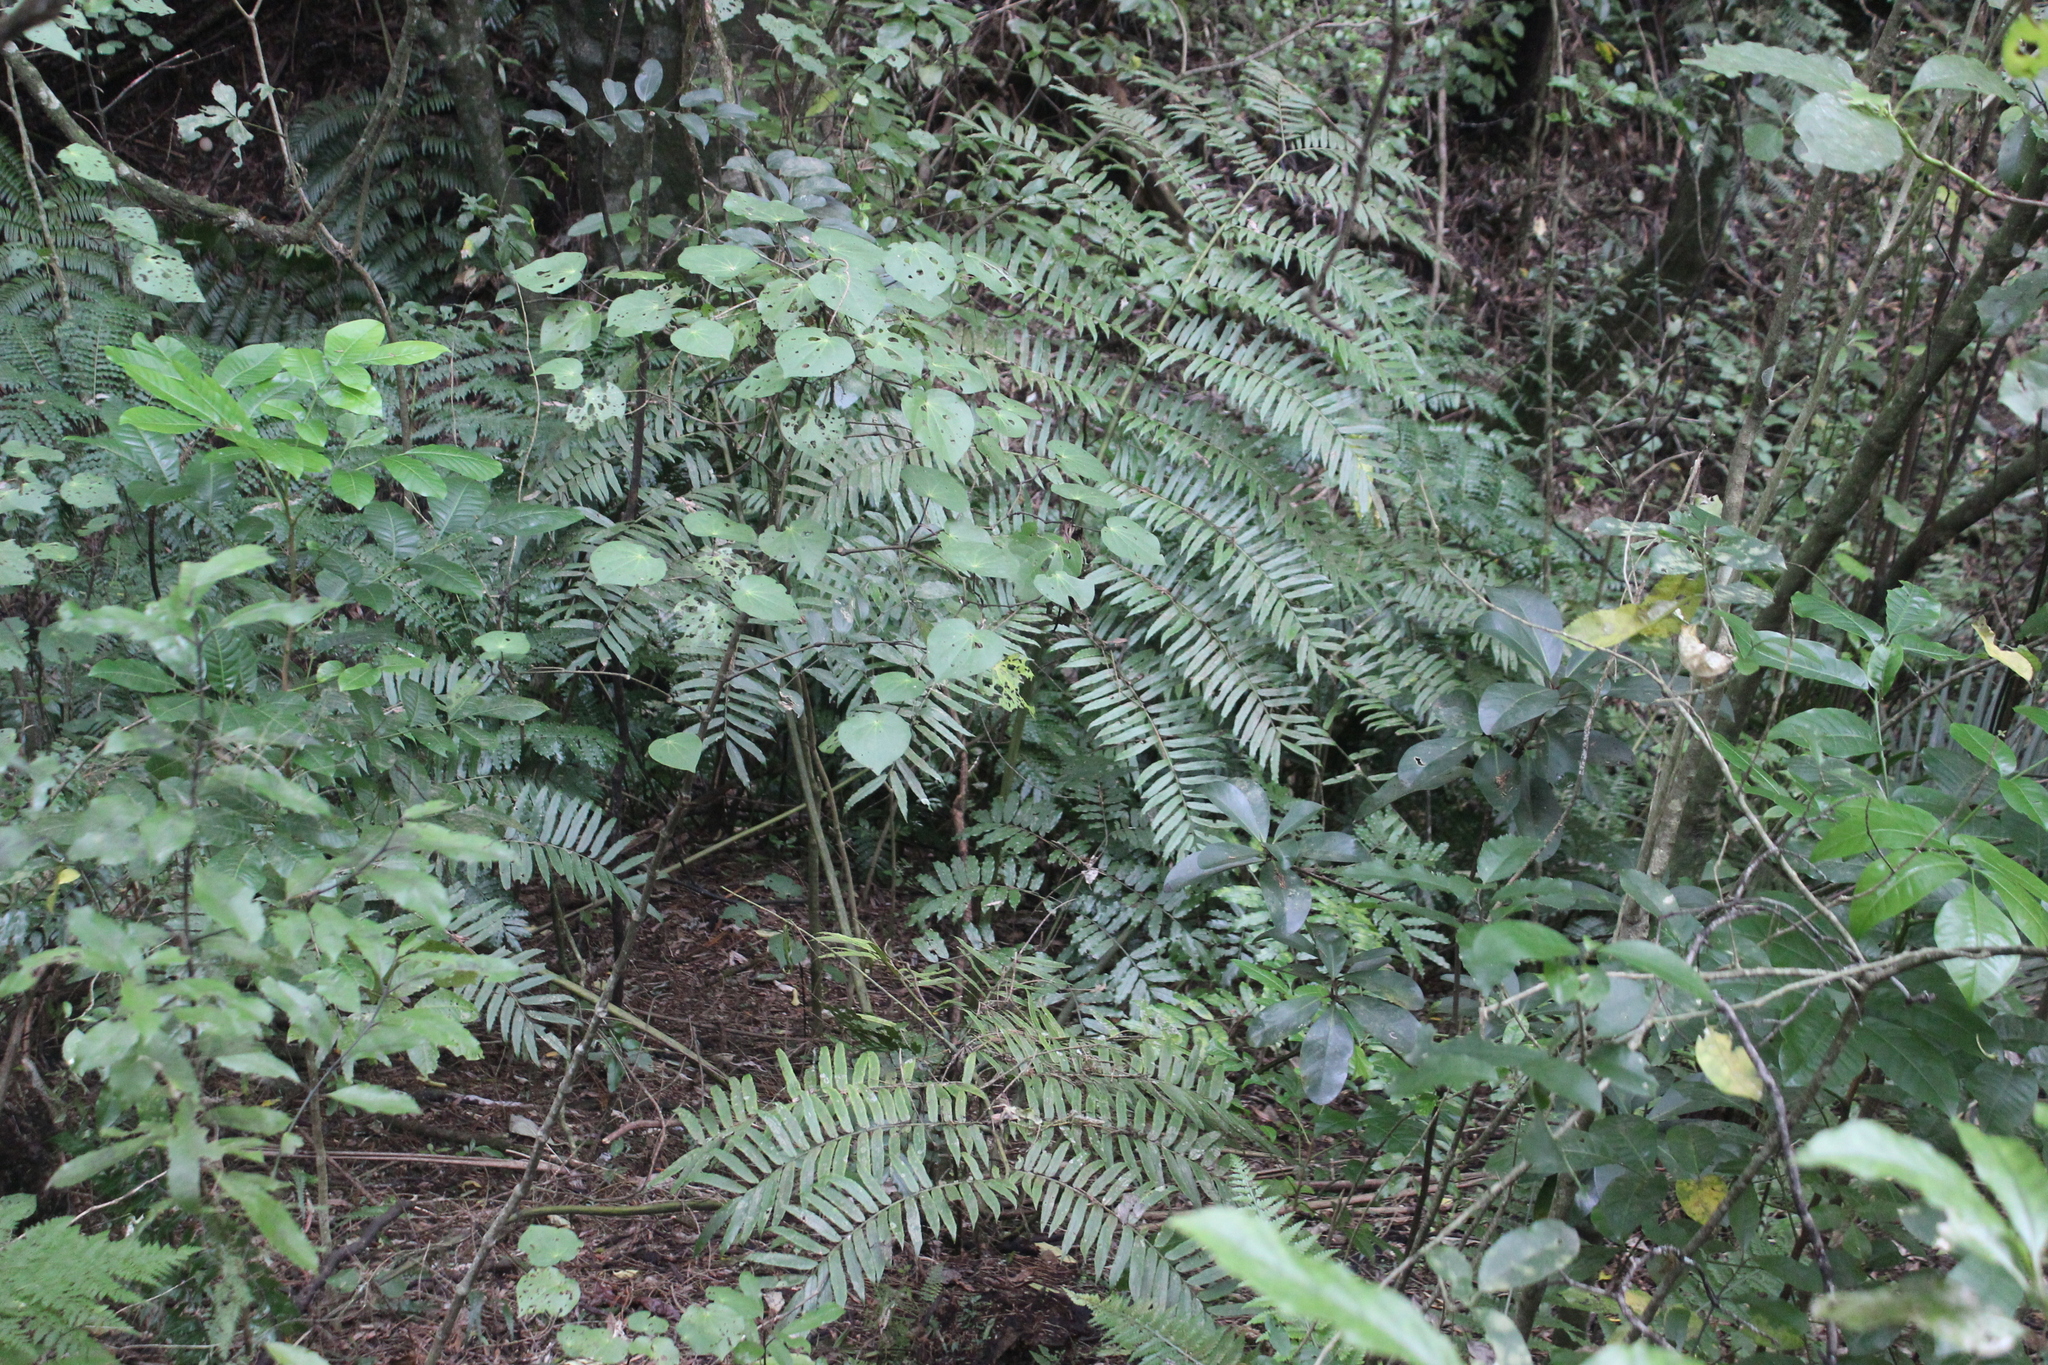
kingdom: Plantae
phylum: Tracheophyta
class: Magnoliopsida
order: Piperales
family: Piperaceae
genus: Macropiper
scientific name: Macropiper excelsum
